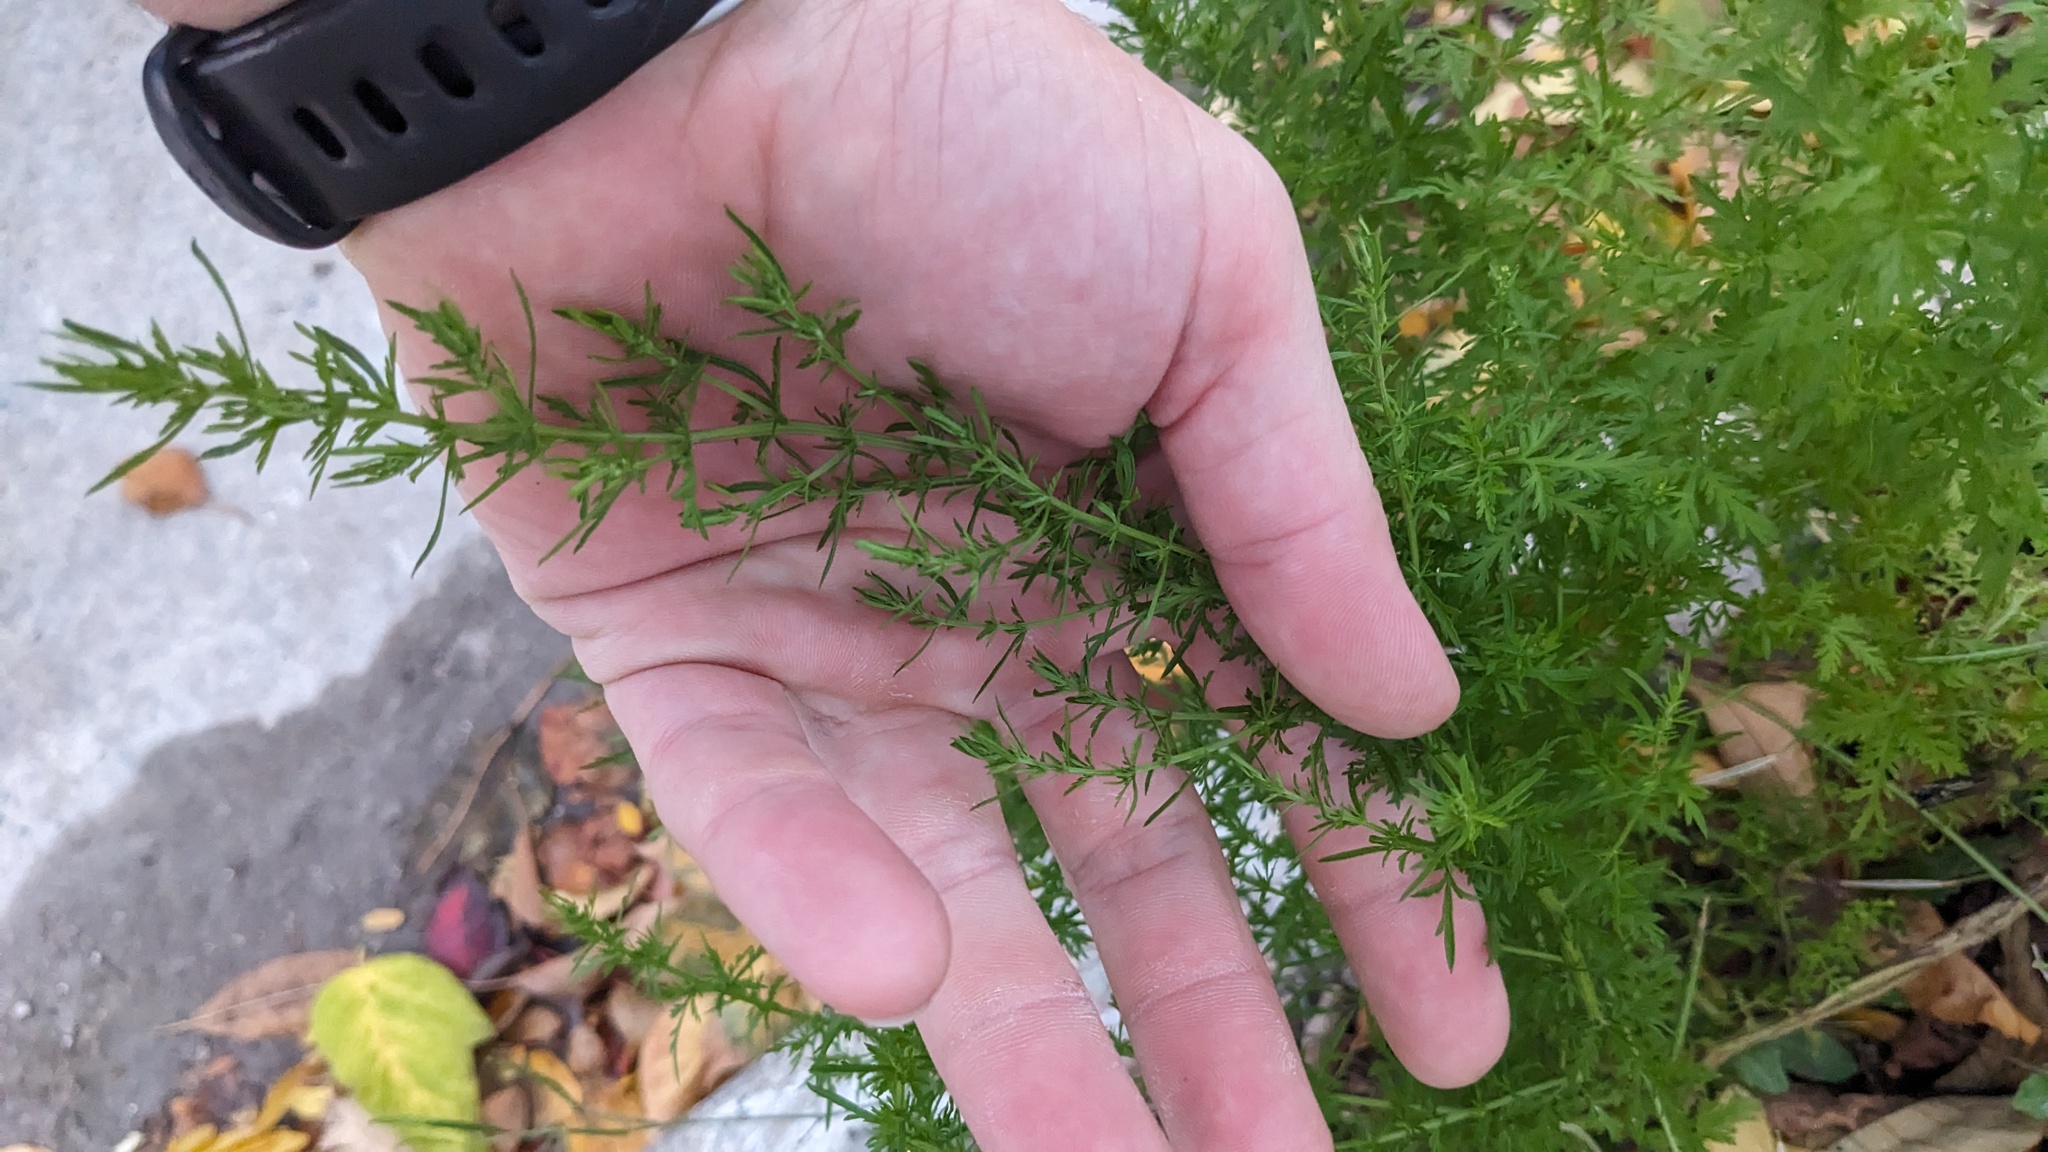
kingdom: Plantae
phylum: Tracheophyta
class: Magnoliopsida
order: Asterales
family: Asteraceae
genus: Artemisia
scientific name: Artemisia annua
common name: Sweet sagewort
